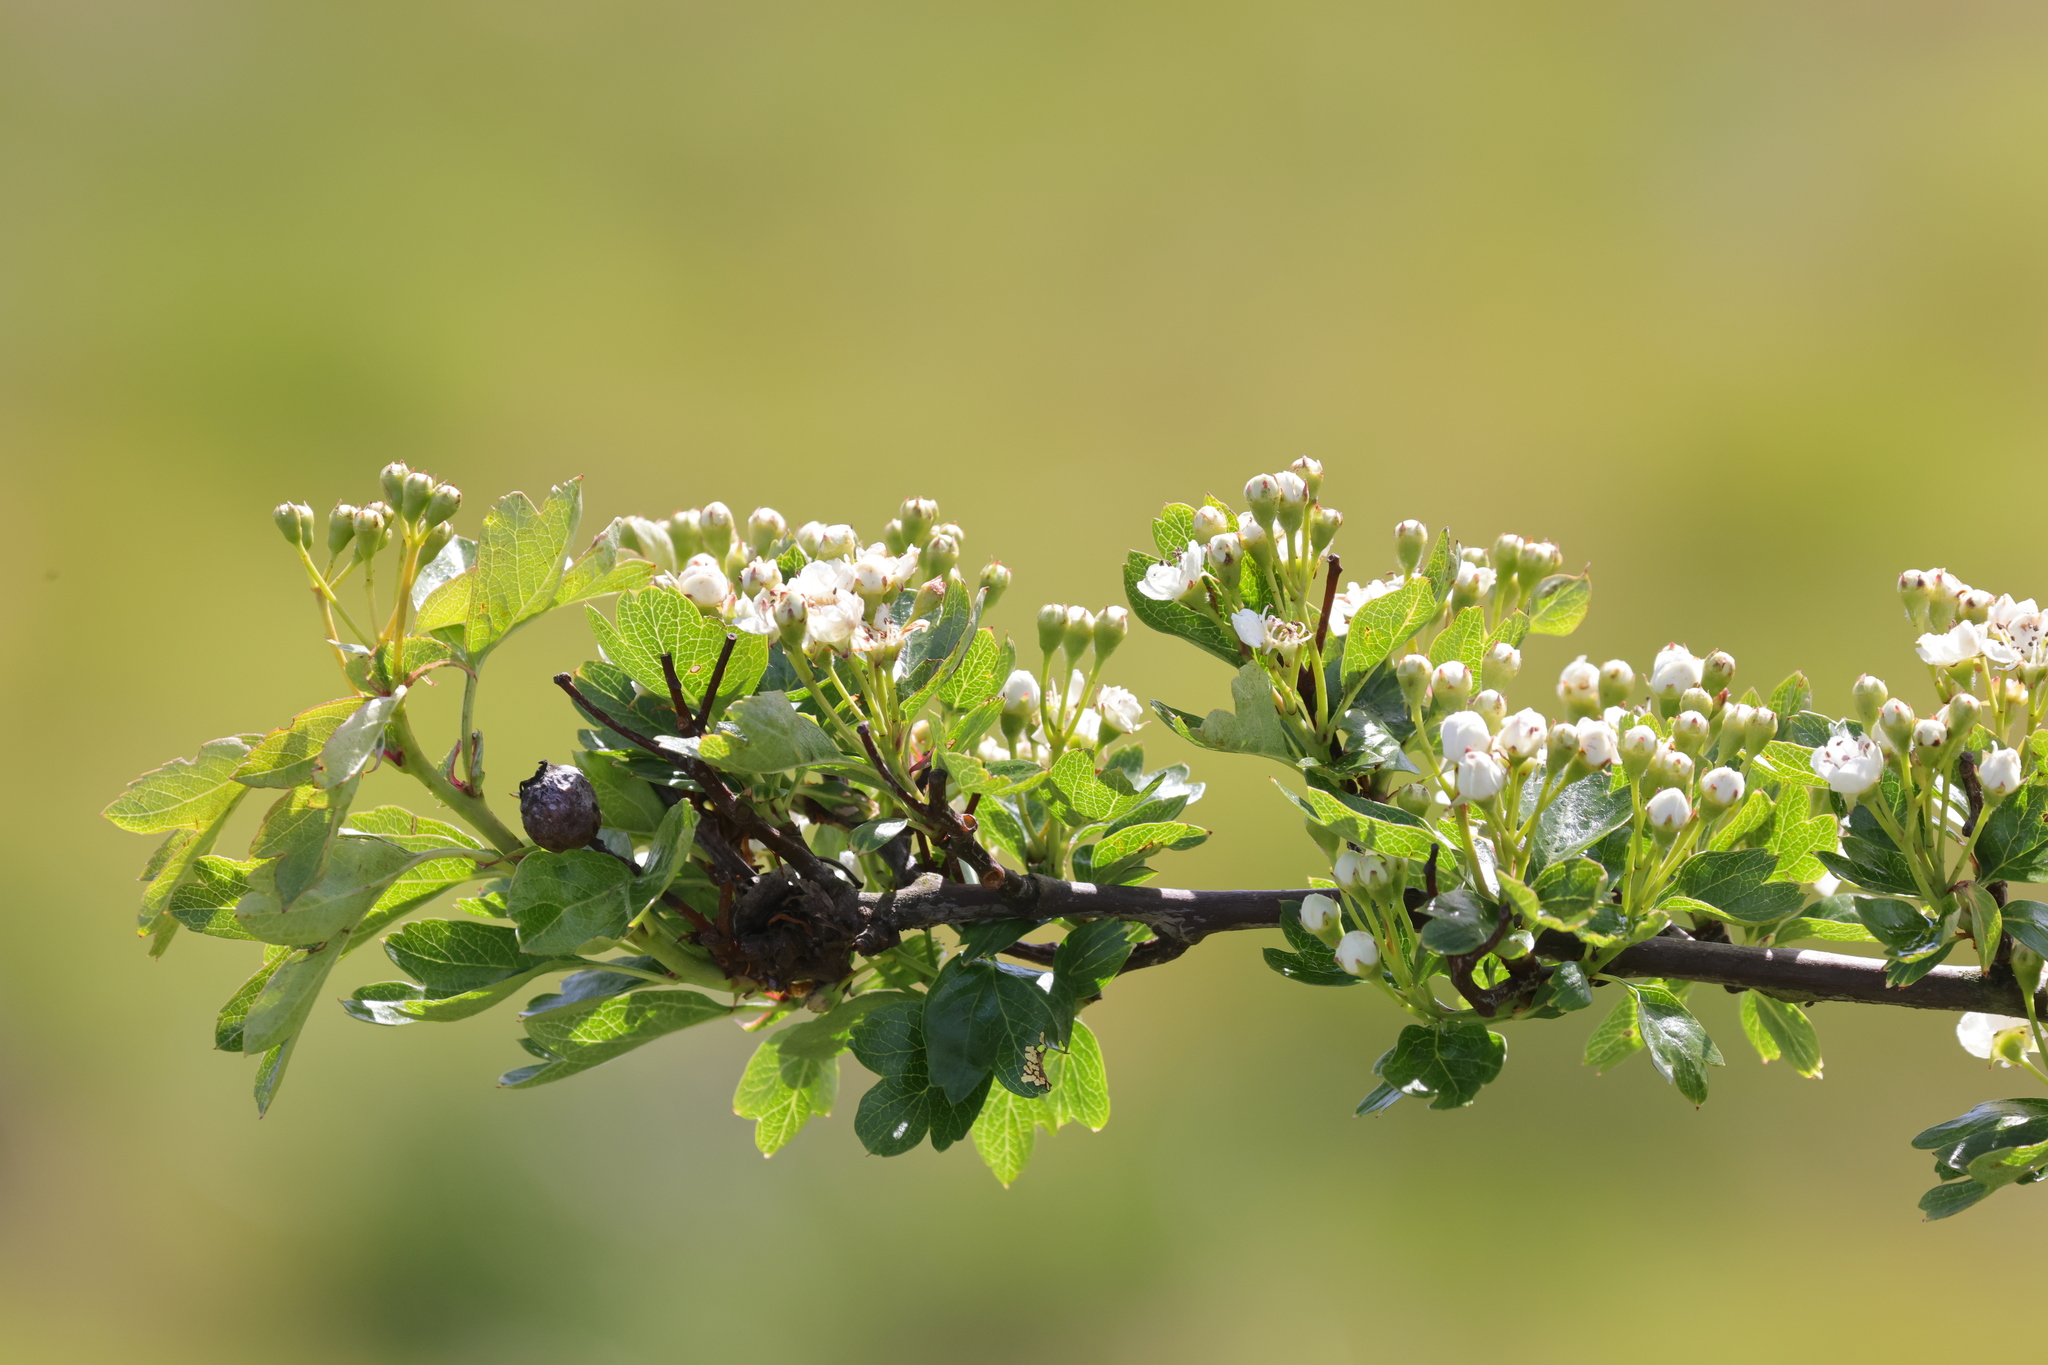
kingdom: Plantae
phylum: Tracheophyta
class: Magnoliopsida
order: Rosales
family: Rosaceae
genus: Crataegus
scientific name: Crataegus monogyna
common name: Hawthorn
